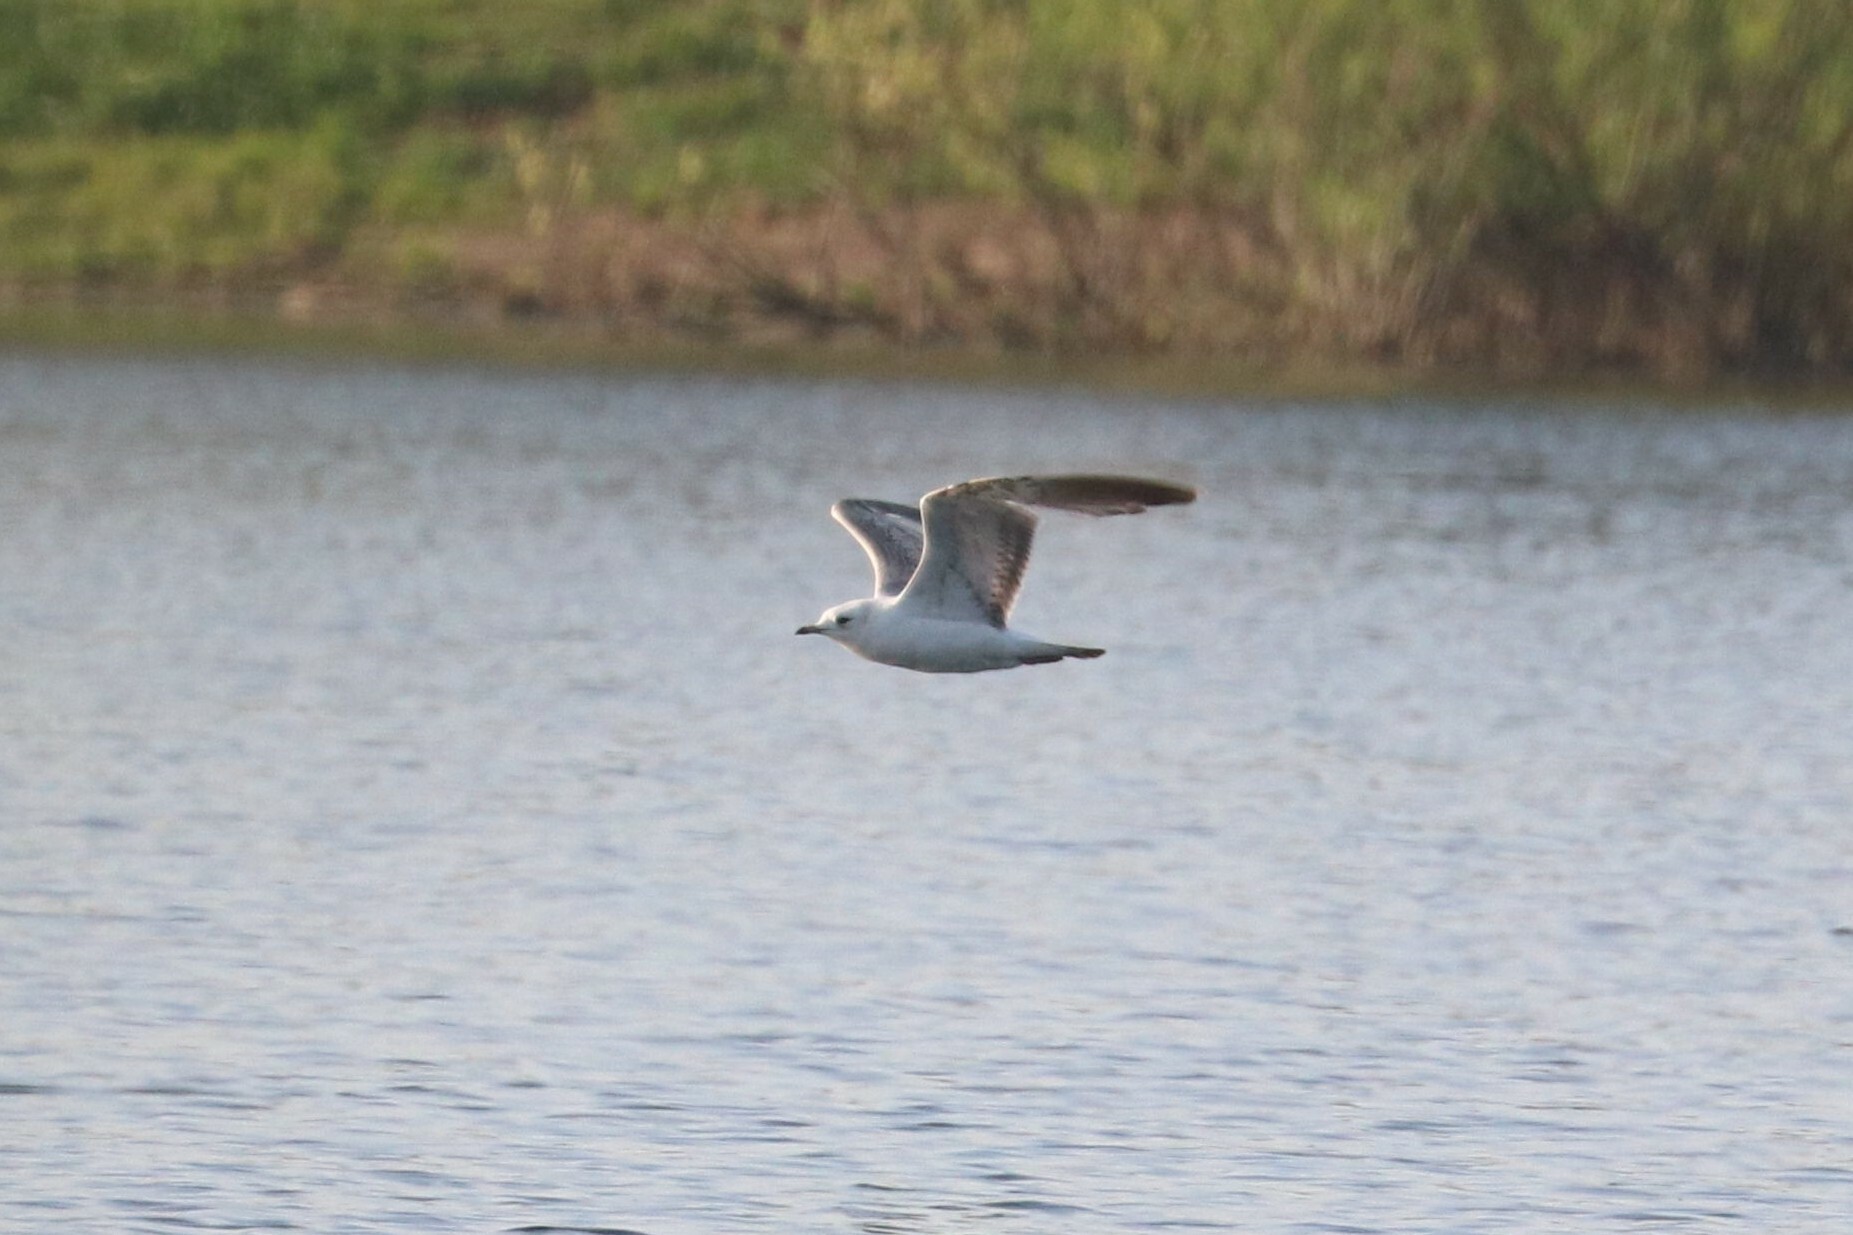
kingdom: Animalia
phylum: Chordata
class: Aves
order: Charadriiformes
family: Laridae
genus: Chroicocephalus
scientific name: Chroicocephalus ridibundus
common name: Black-headed gull
